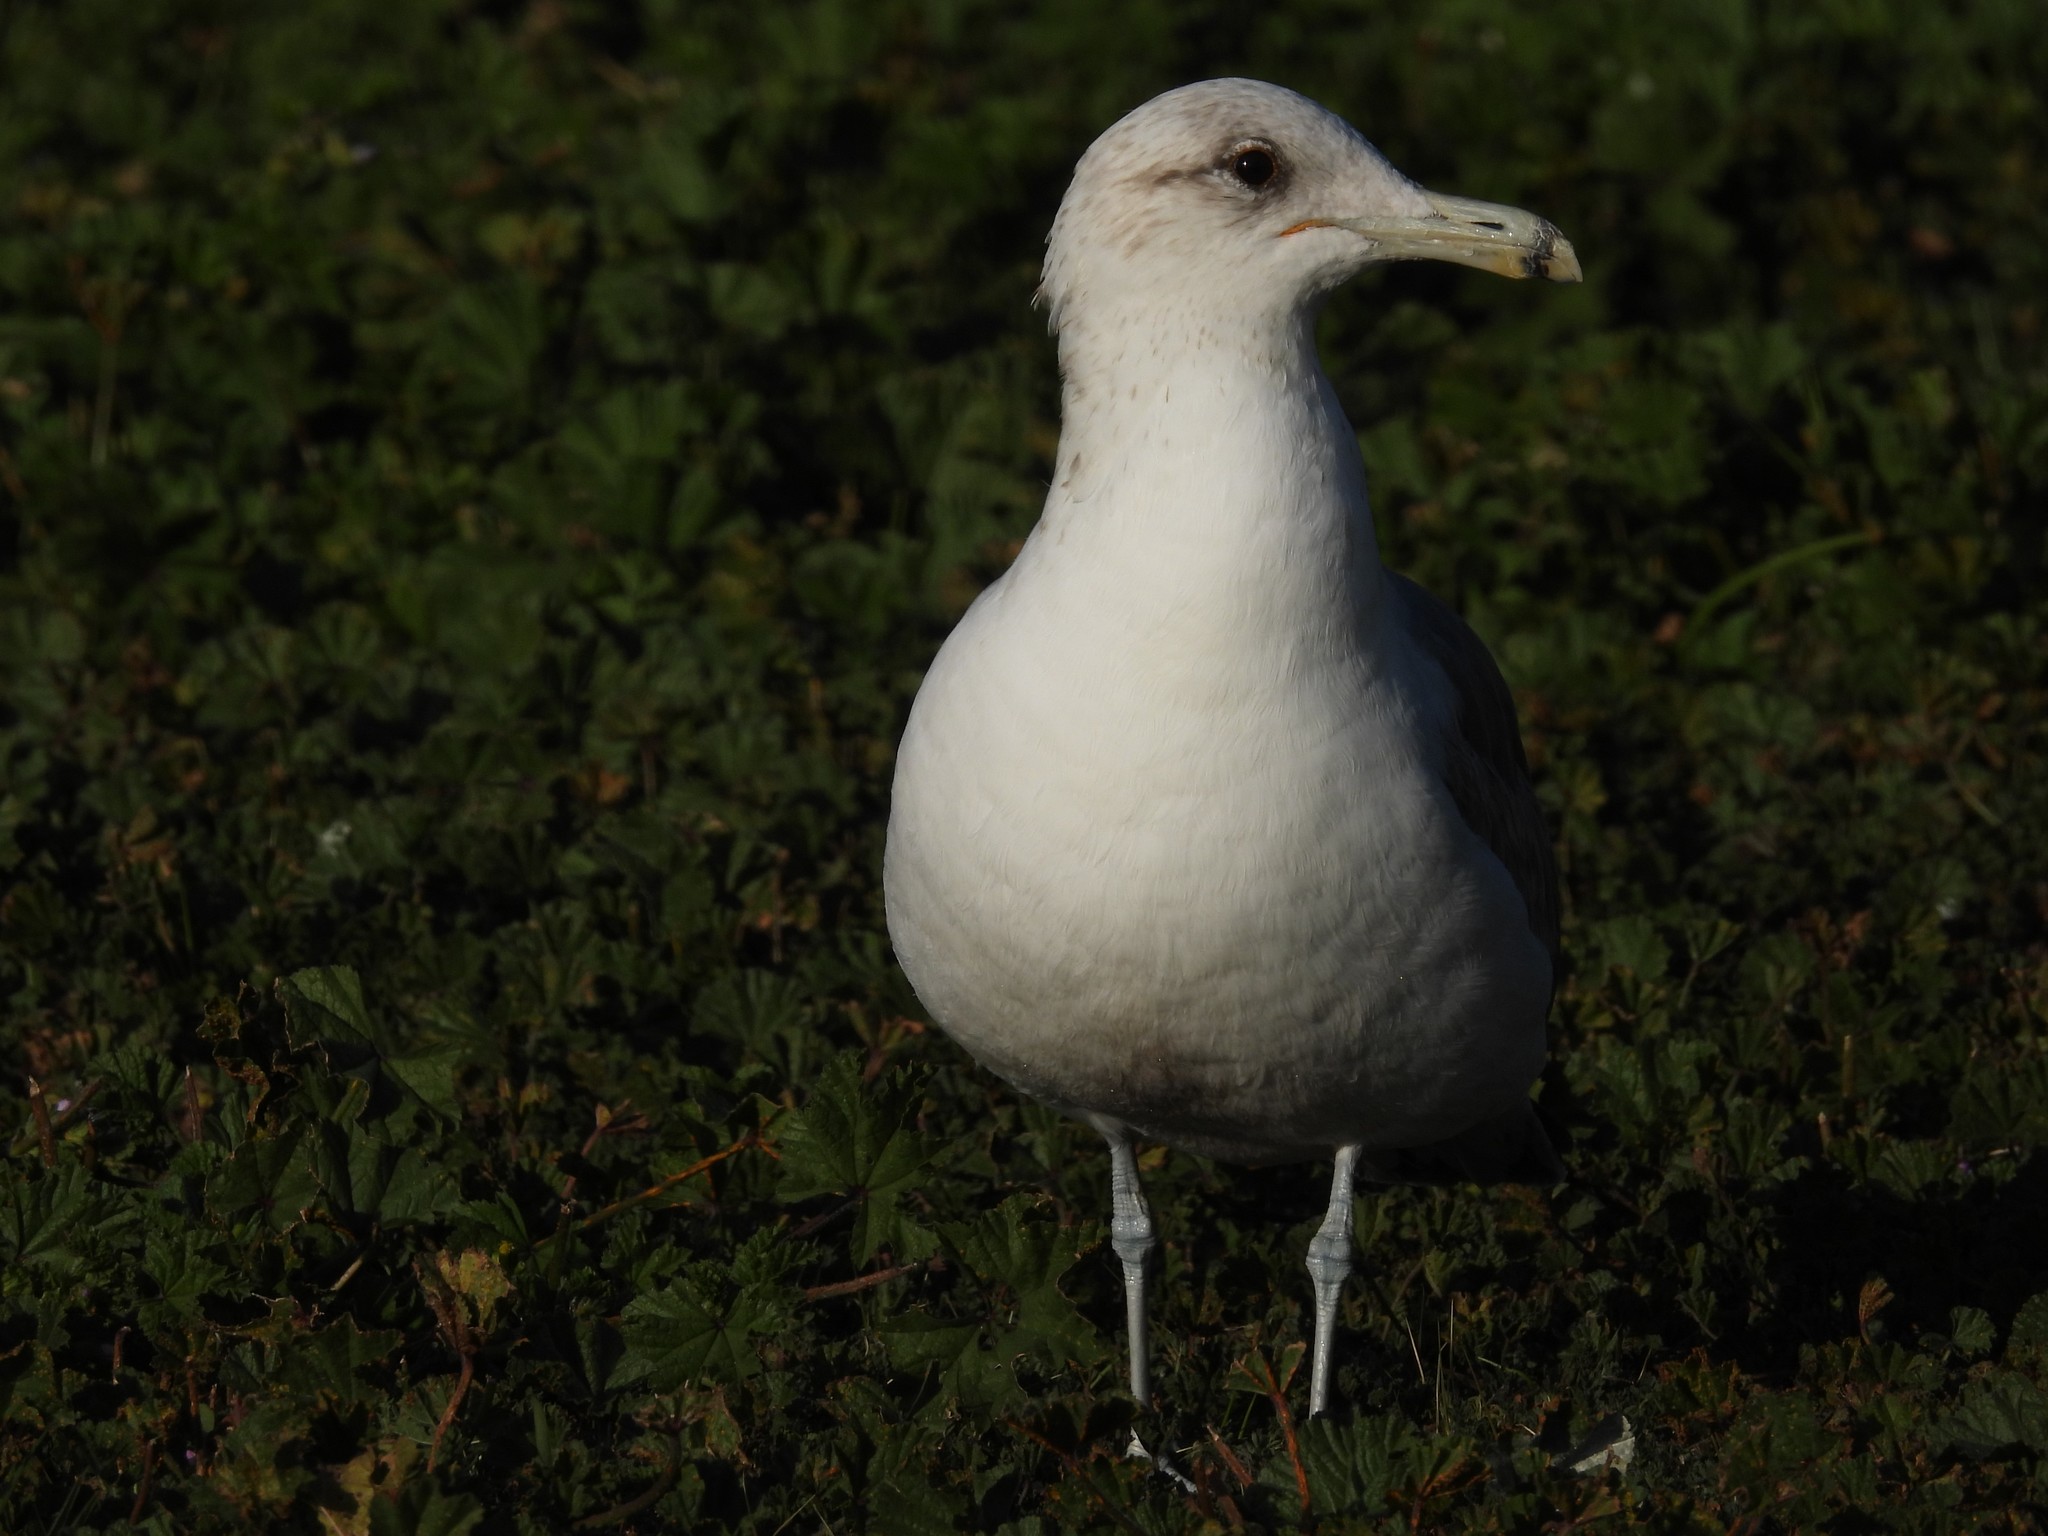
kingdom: Animalia
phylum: Chordata
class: Aves
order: Charadriiformes
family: Laridae
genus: Larus
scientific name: Larus delawarensis
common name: Ring-billed gull
